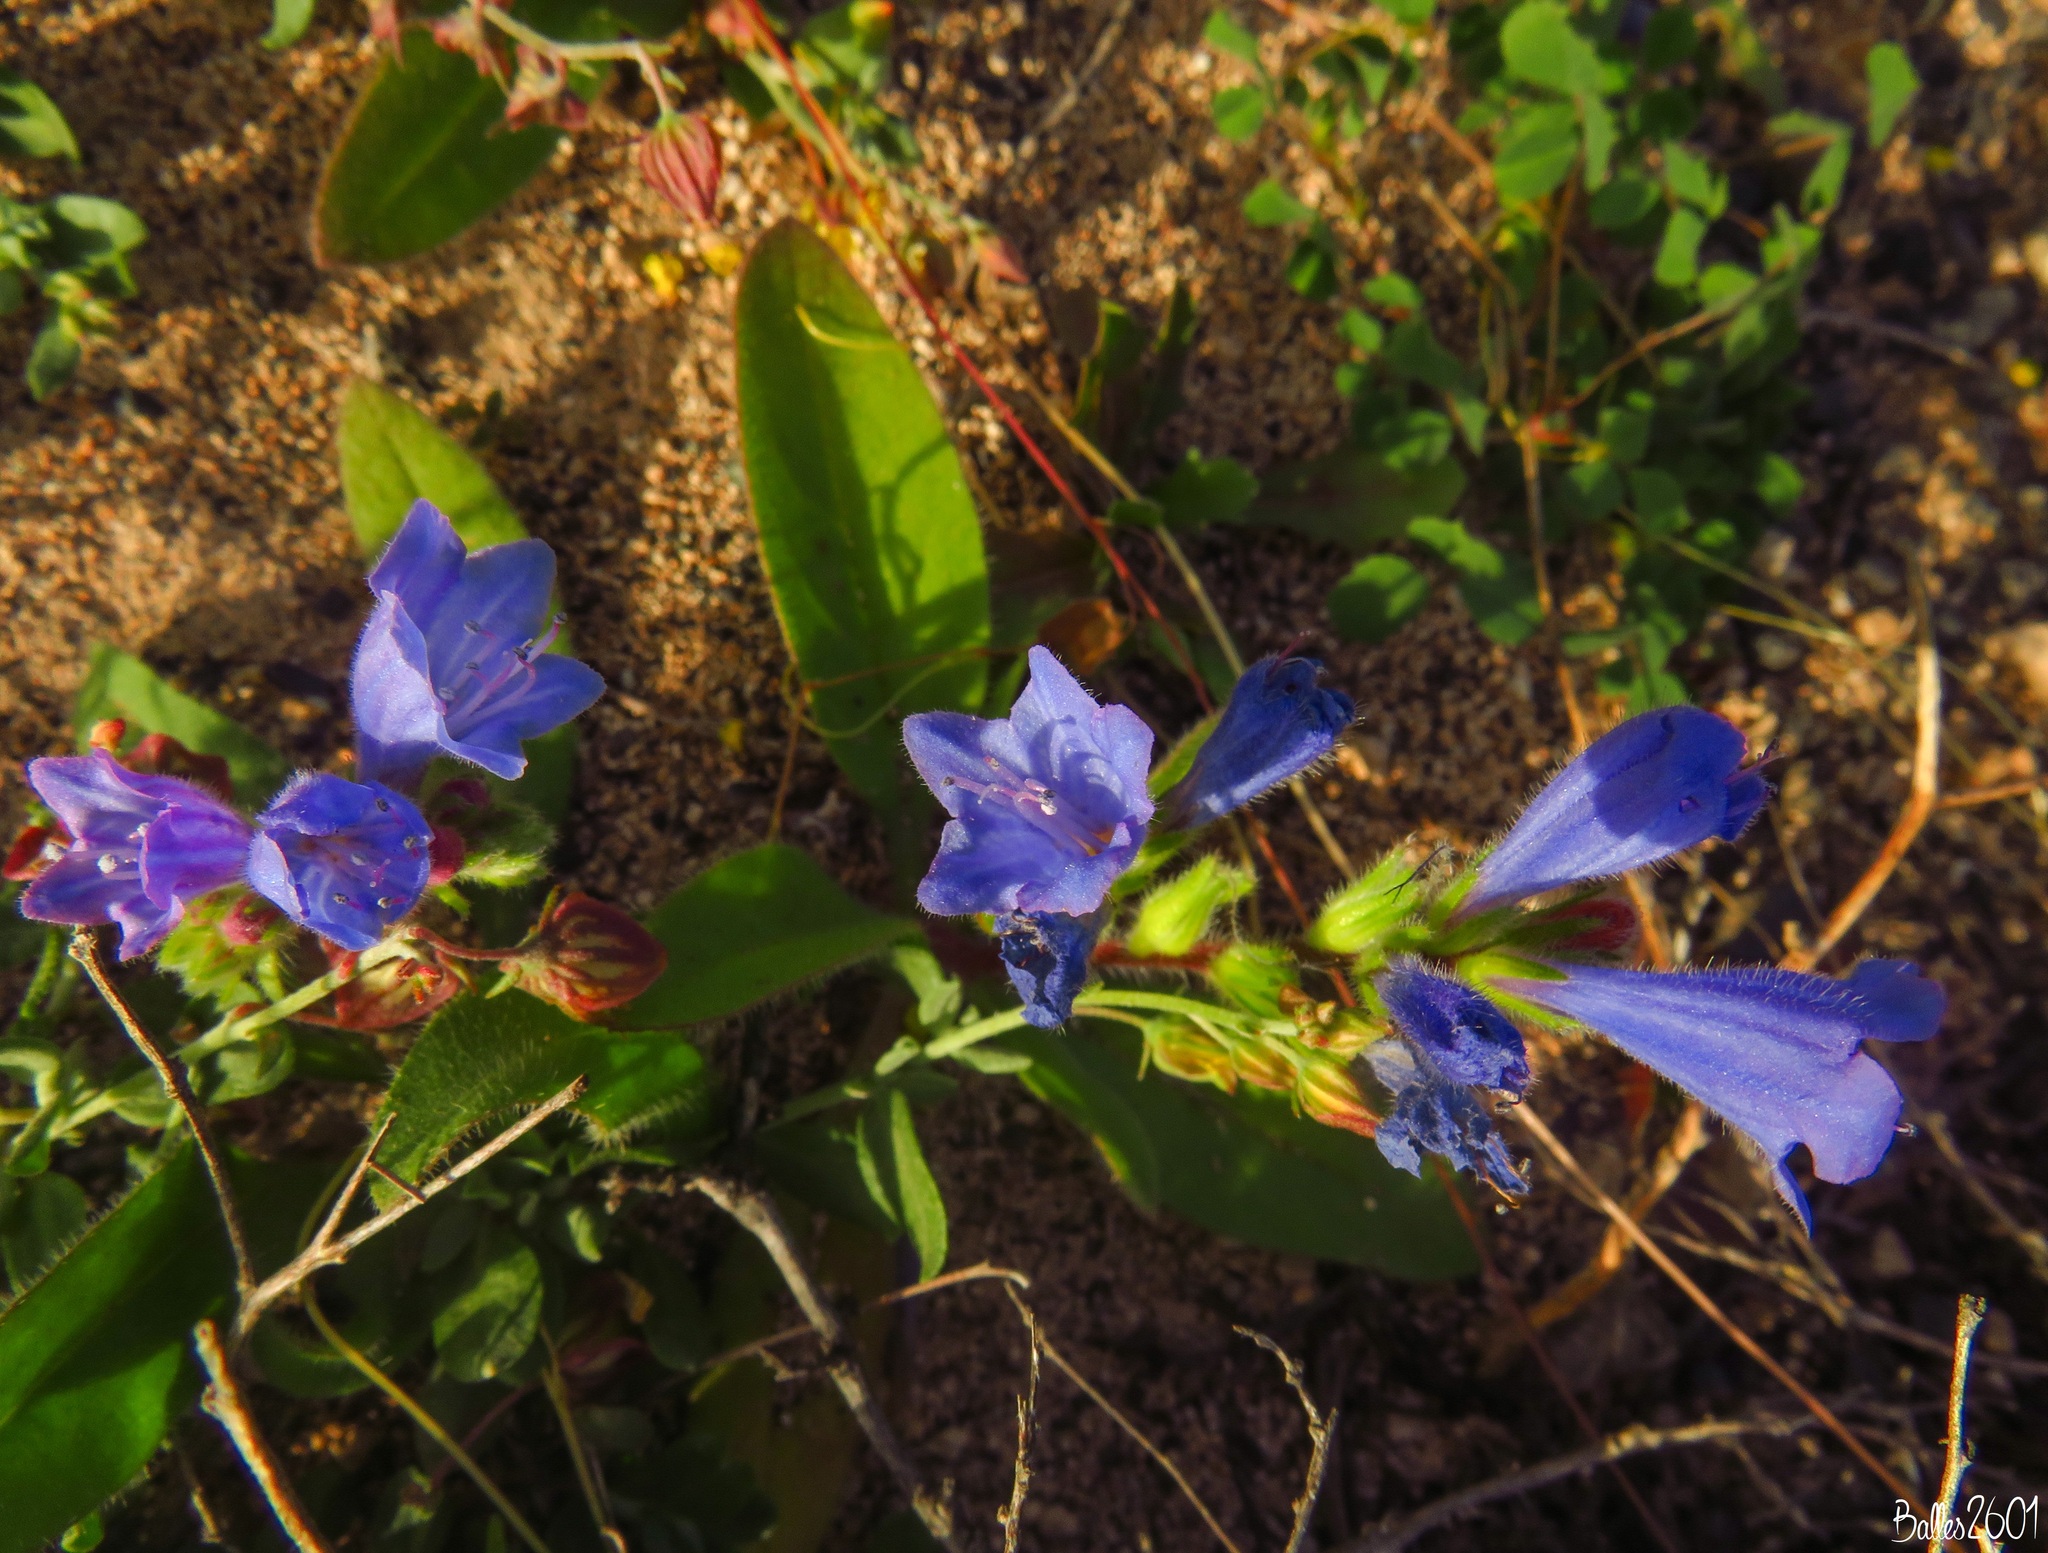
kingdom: Plantae
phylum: Tracheophyta
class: Magnoliopsida
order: Boraginales
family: Boraginaceae
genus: Echium
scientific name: Echium bonnetii
